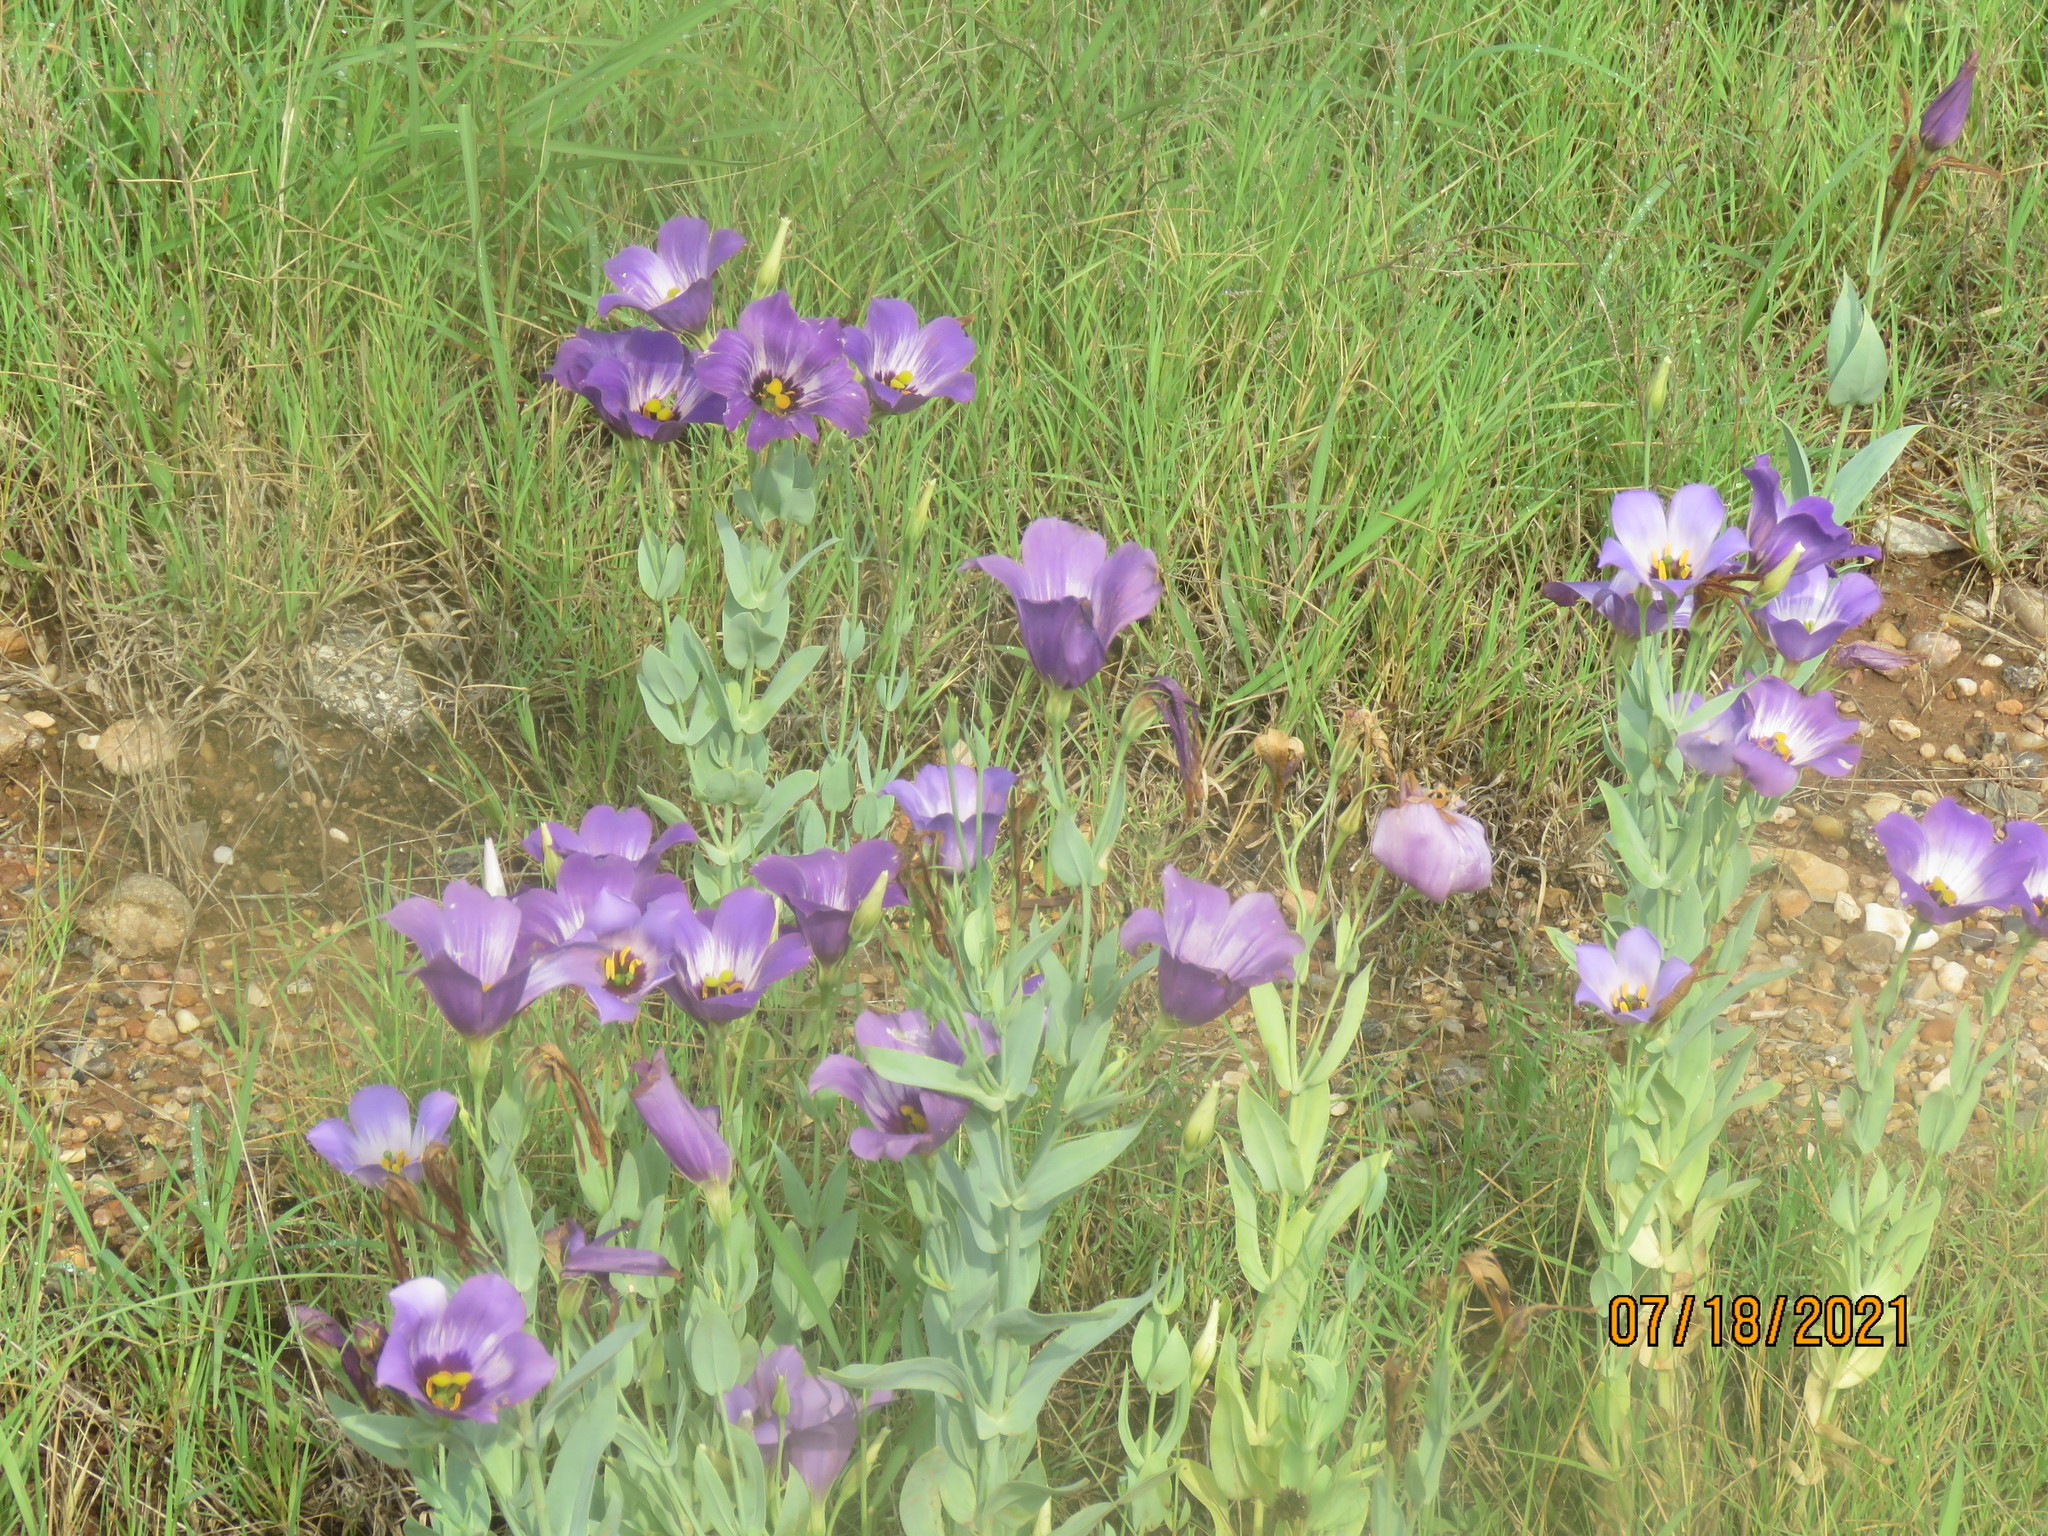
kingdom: Plantae
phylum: Tracheophyta
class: Magnoliopsida
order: Gentianales
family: Gentianaceae
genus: Eustoma
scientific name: Eustoma russellianum
